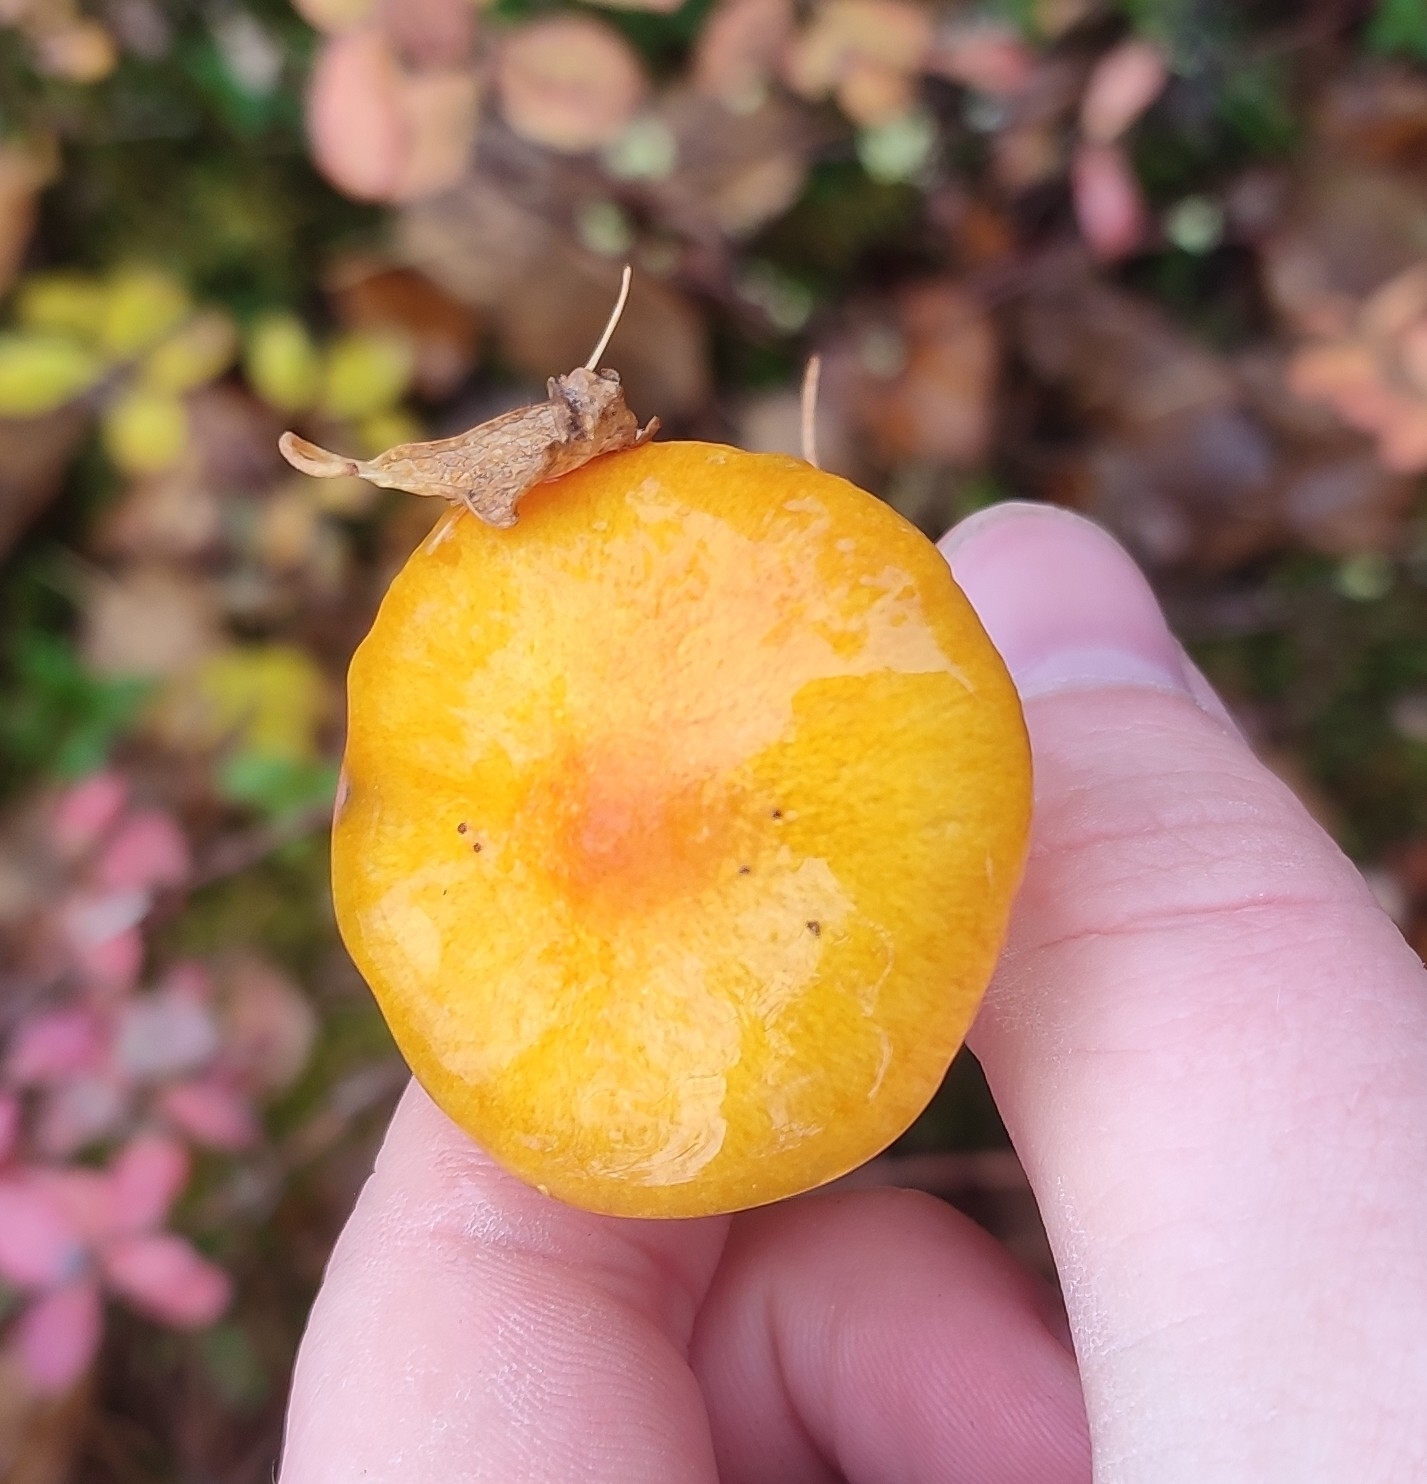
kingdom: Fungi
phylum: Basidiomycota
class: Agaricomycetes
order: Agaricales
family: Hygrophoraceae
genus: Hygrophorus
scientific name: Hygrophorus speciosus
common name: Splendid woodwax
